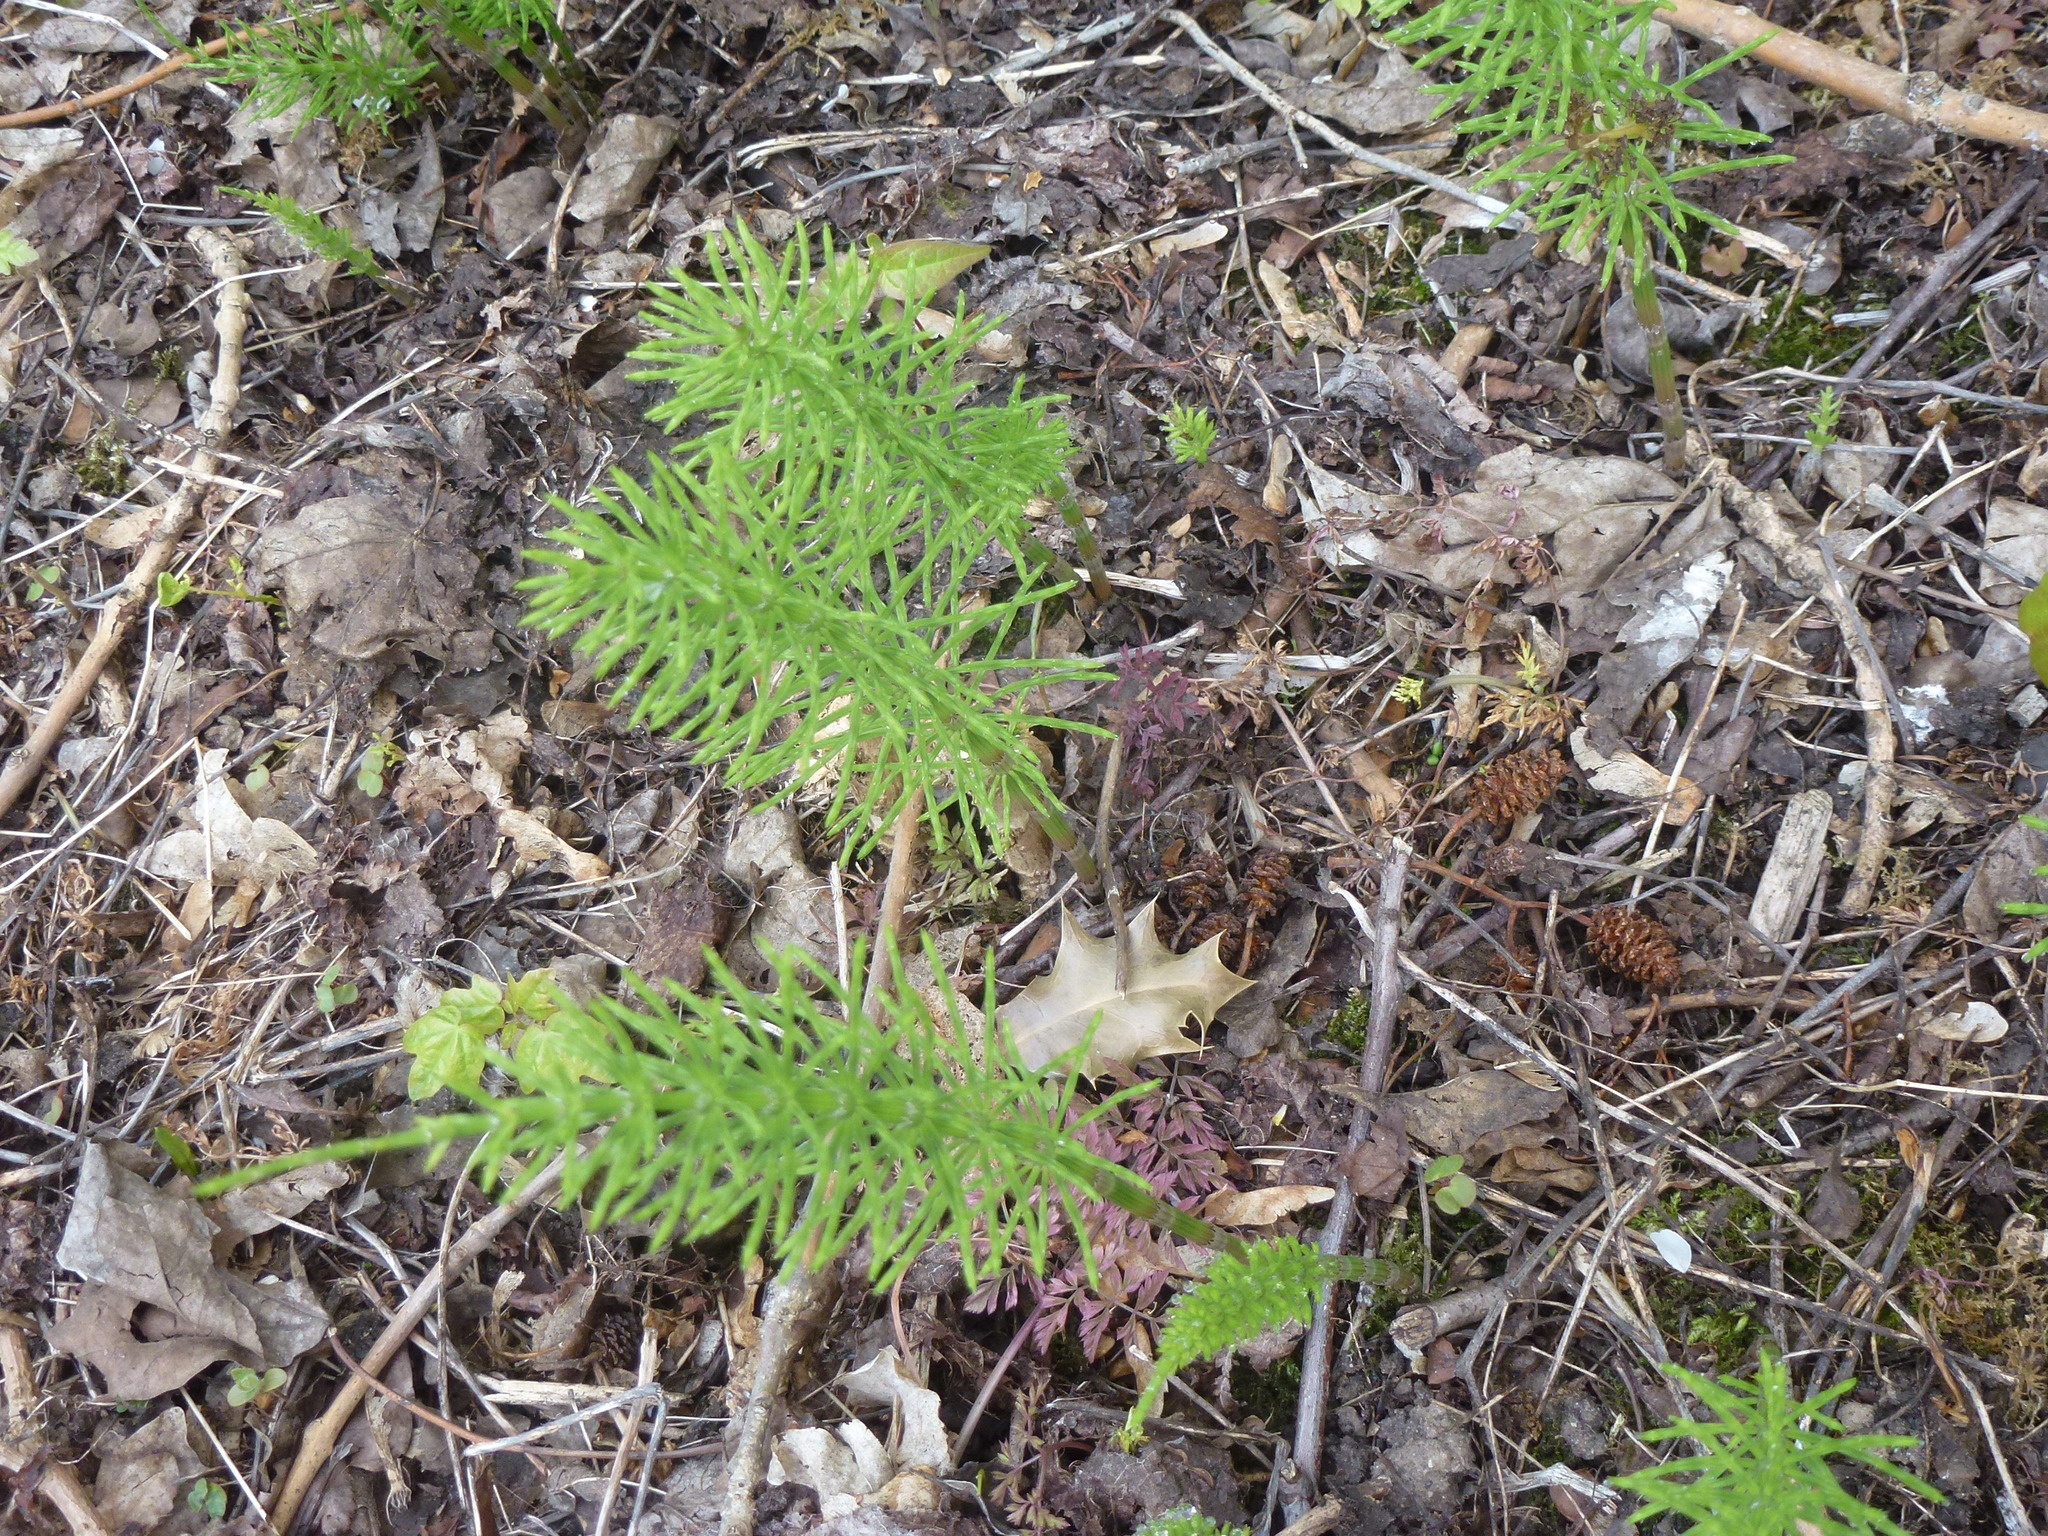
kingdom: Plantae
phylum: Tracheophyta
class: Polypodiopsida
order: Equisetales
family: Equisetaceae
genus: Equisetum
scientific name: Equisetum arvense
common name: Field horsetail
